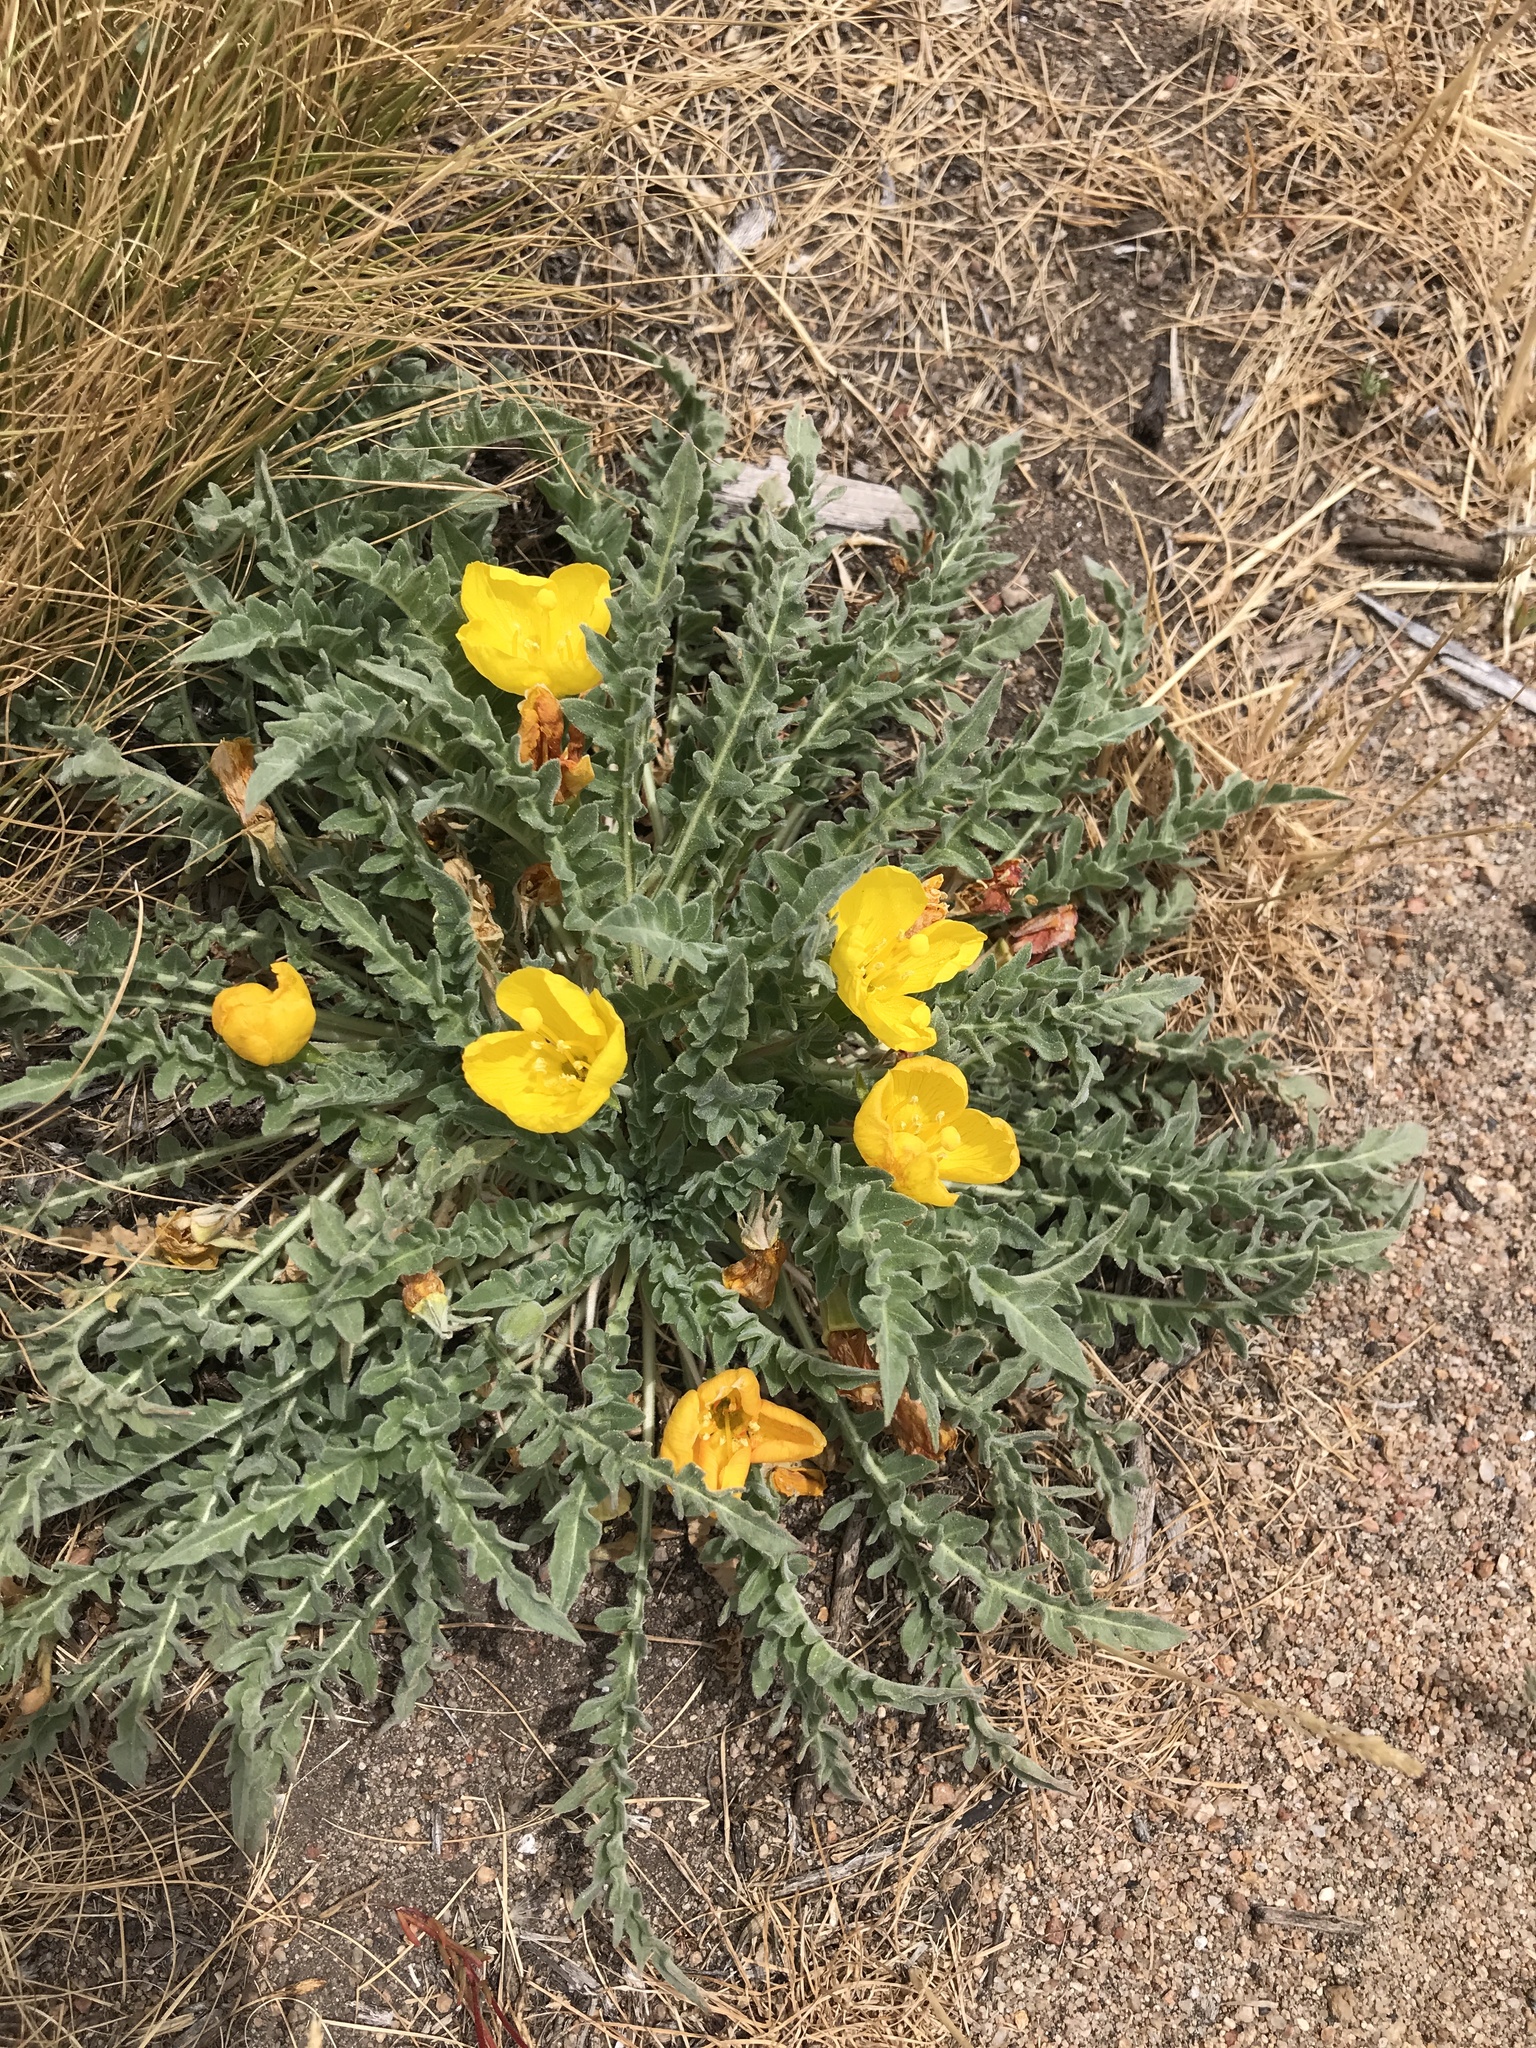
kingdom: Plantae
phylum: Tracheophyta
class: Magnoliopsida
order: Myrtales
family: Onagraceae
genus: Taraxia
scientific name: Taraxia tanacetifolia
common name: Tansyleaf evening primrose
